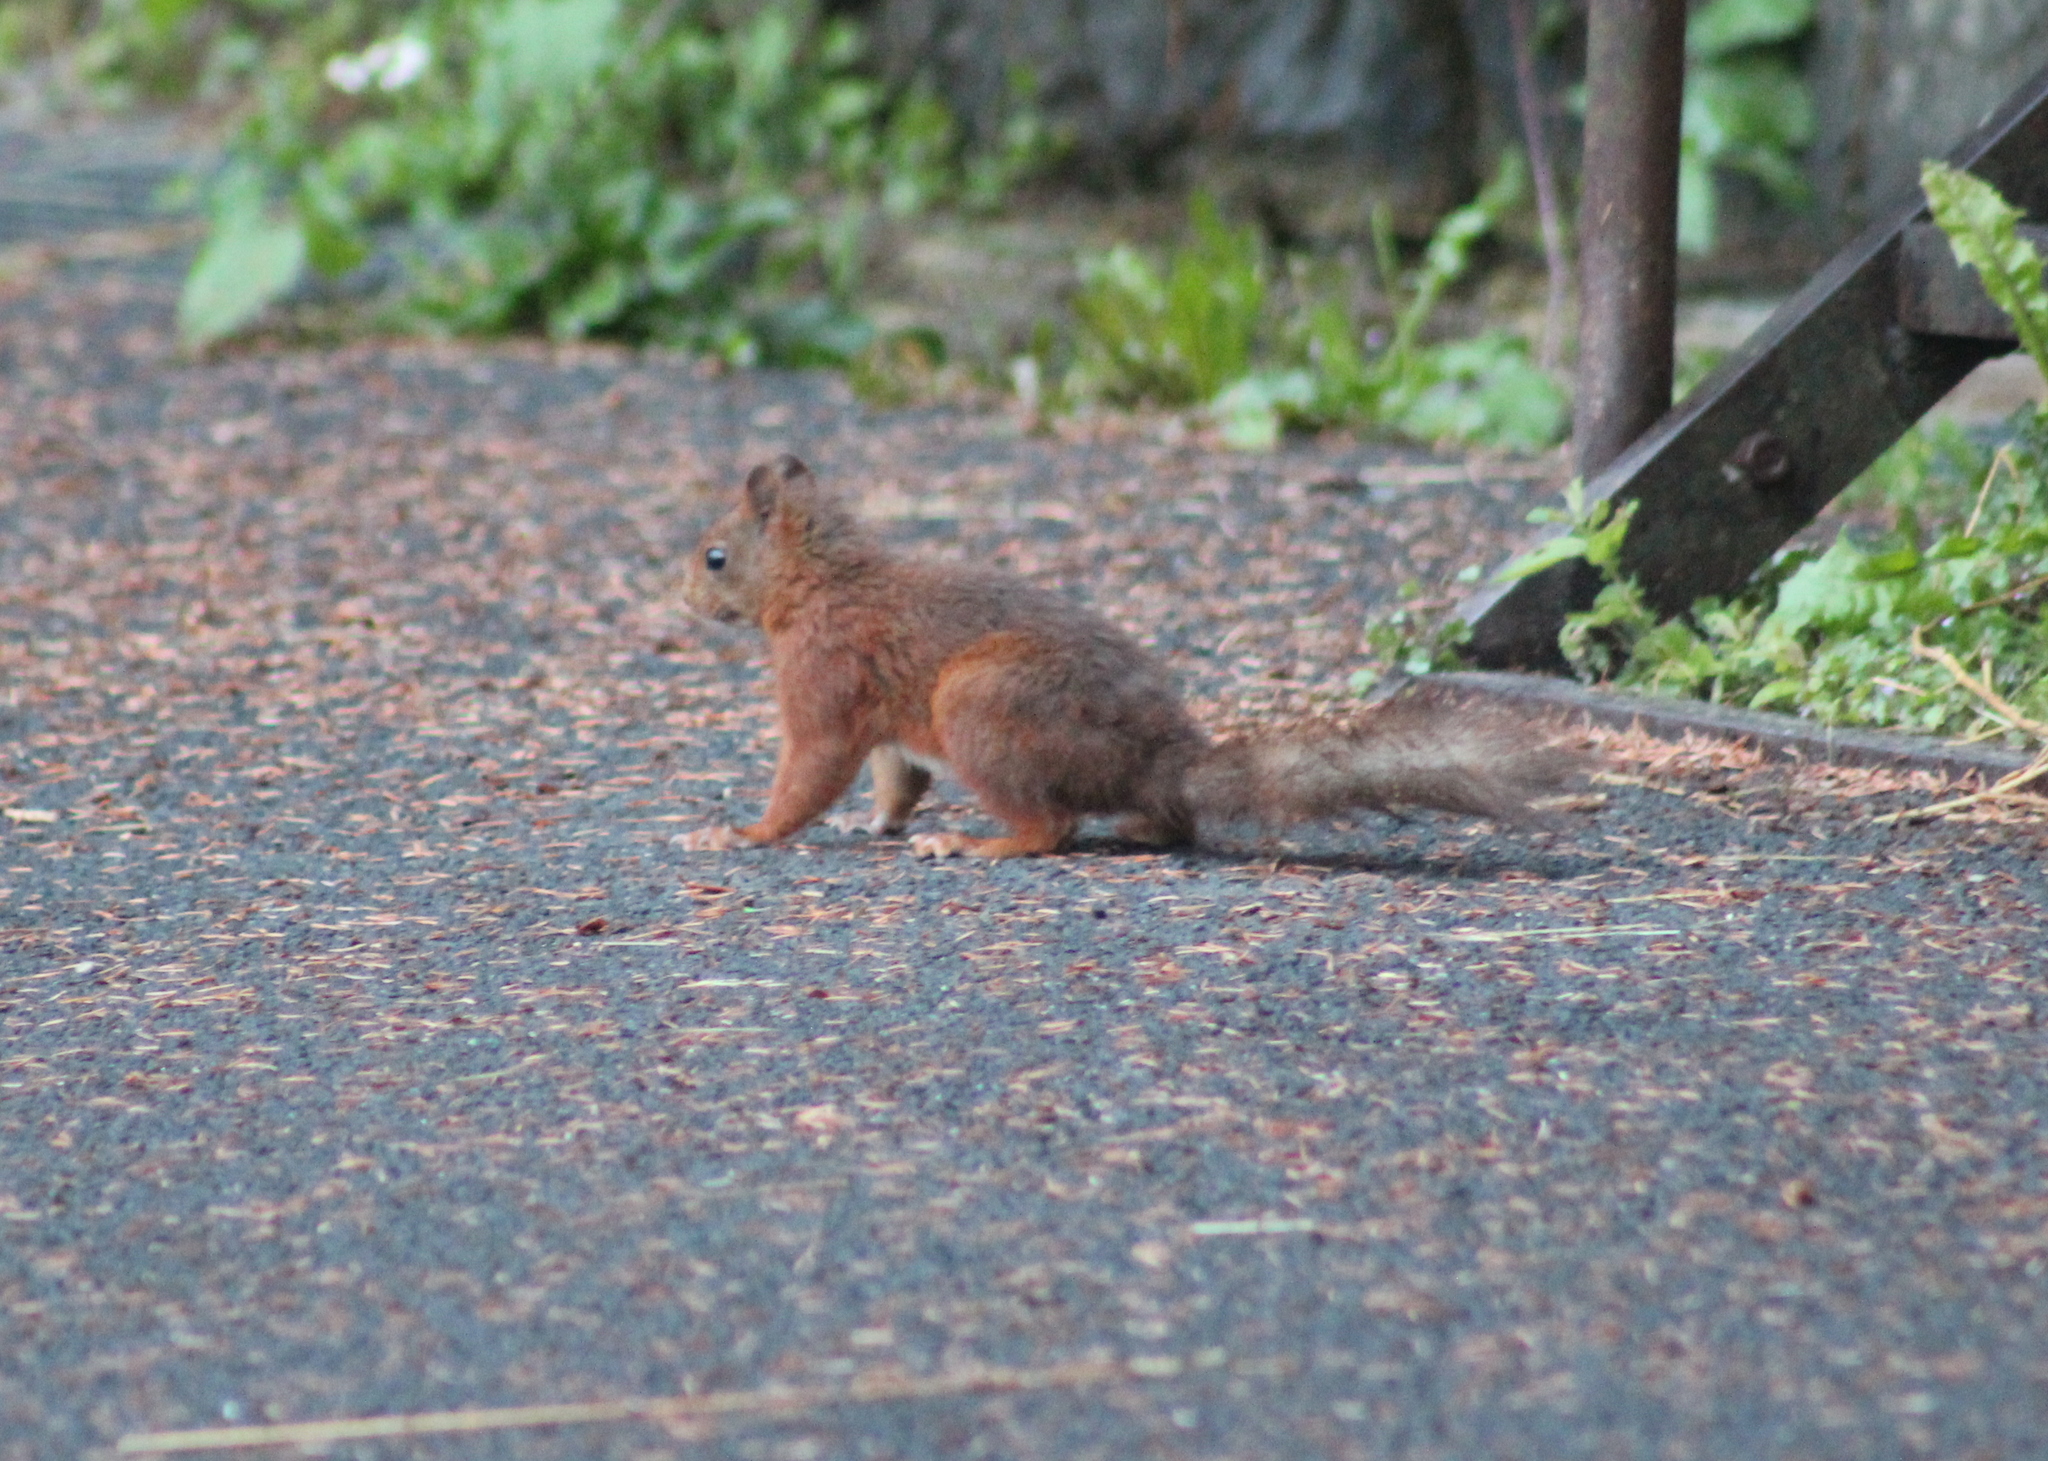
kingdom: Animalia
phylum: Chordata
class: Mammalia
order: Rodentia
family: Sciuridae
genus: Sciurus
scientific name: Sciurus vulgaris
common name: Eurasian red squirrel
